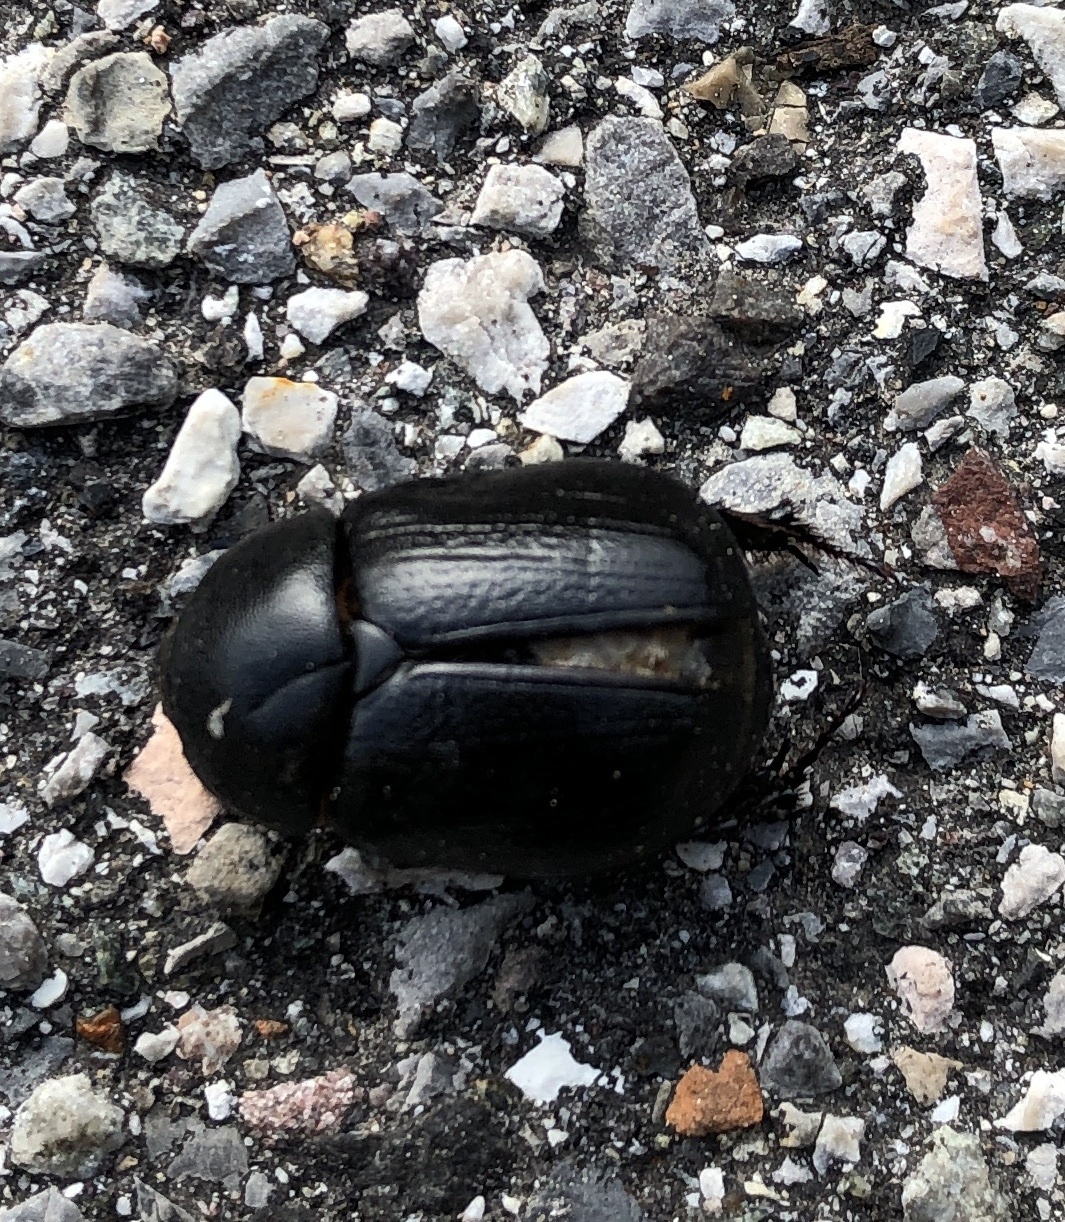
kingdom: Animalia
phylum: Arthropoda
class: Insecta
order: Coleoptera
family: Scarabaeidae
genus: Pentodon
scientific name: Pentodon bidens
